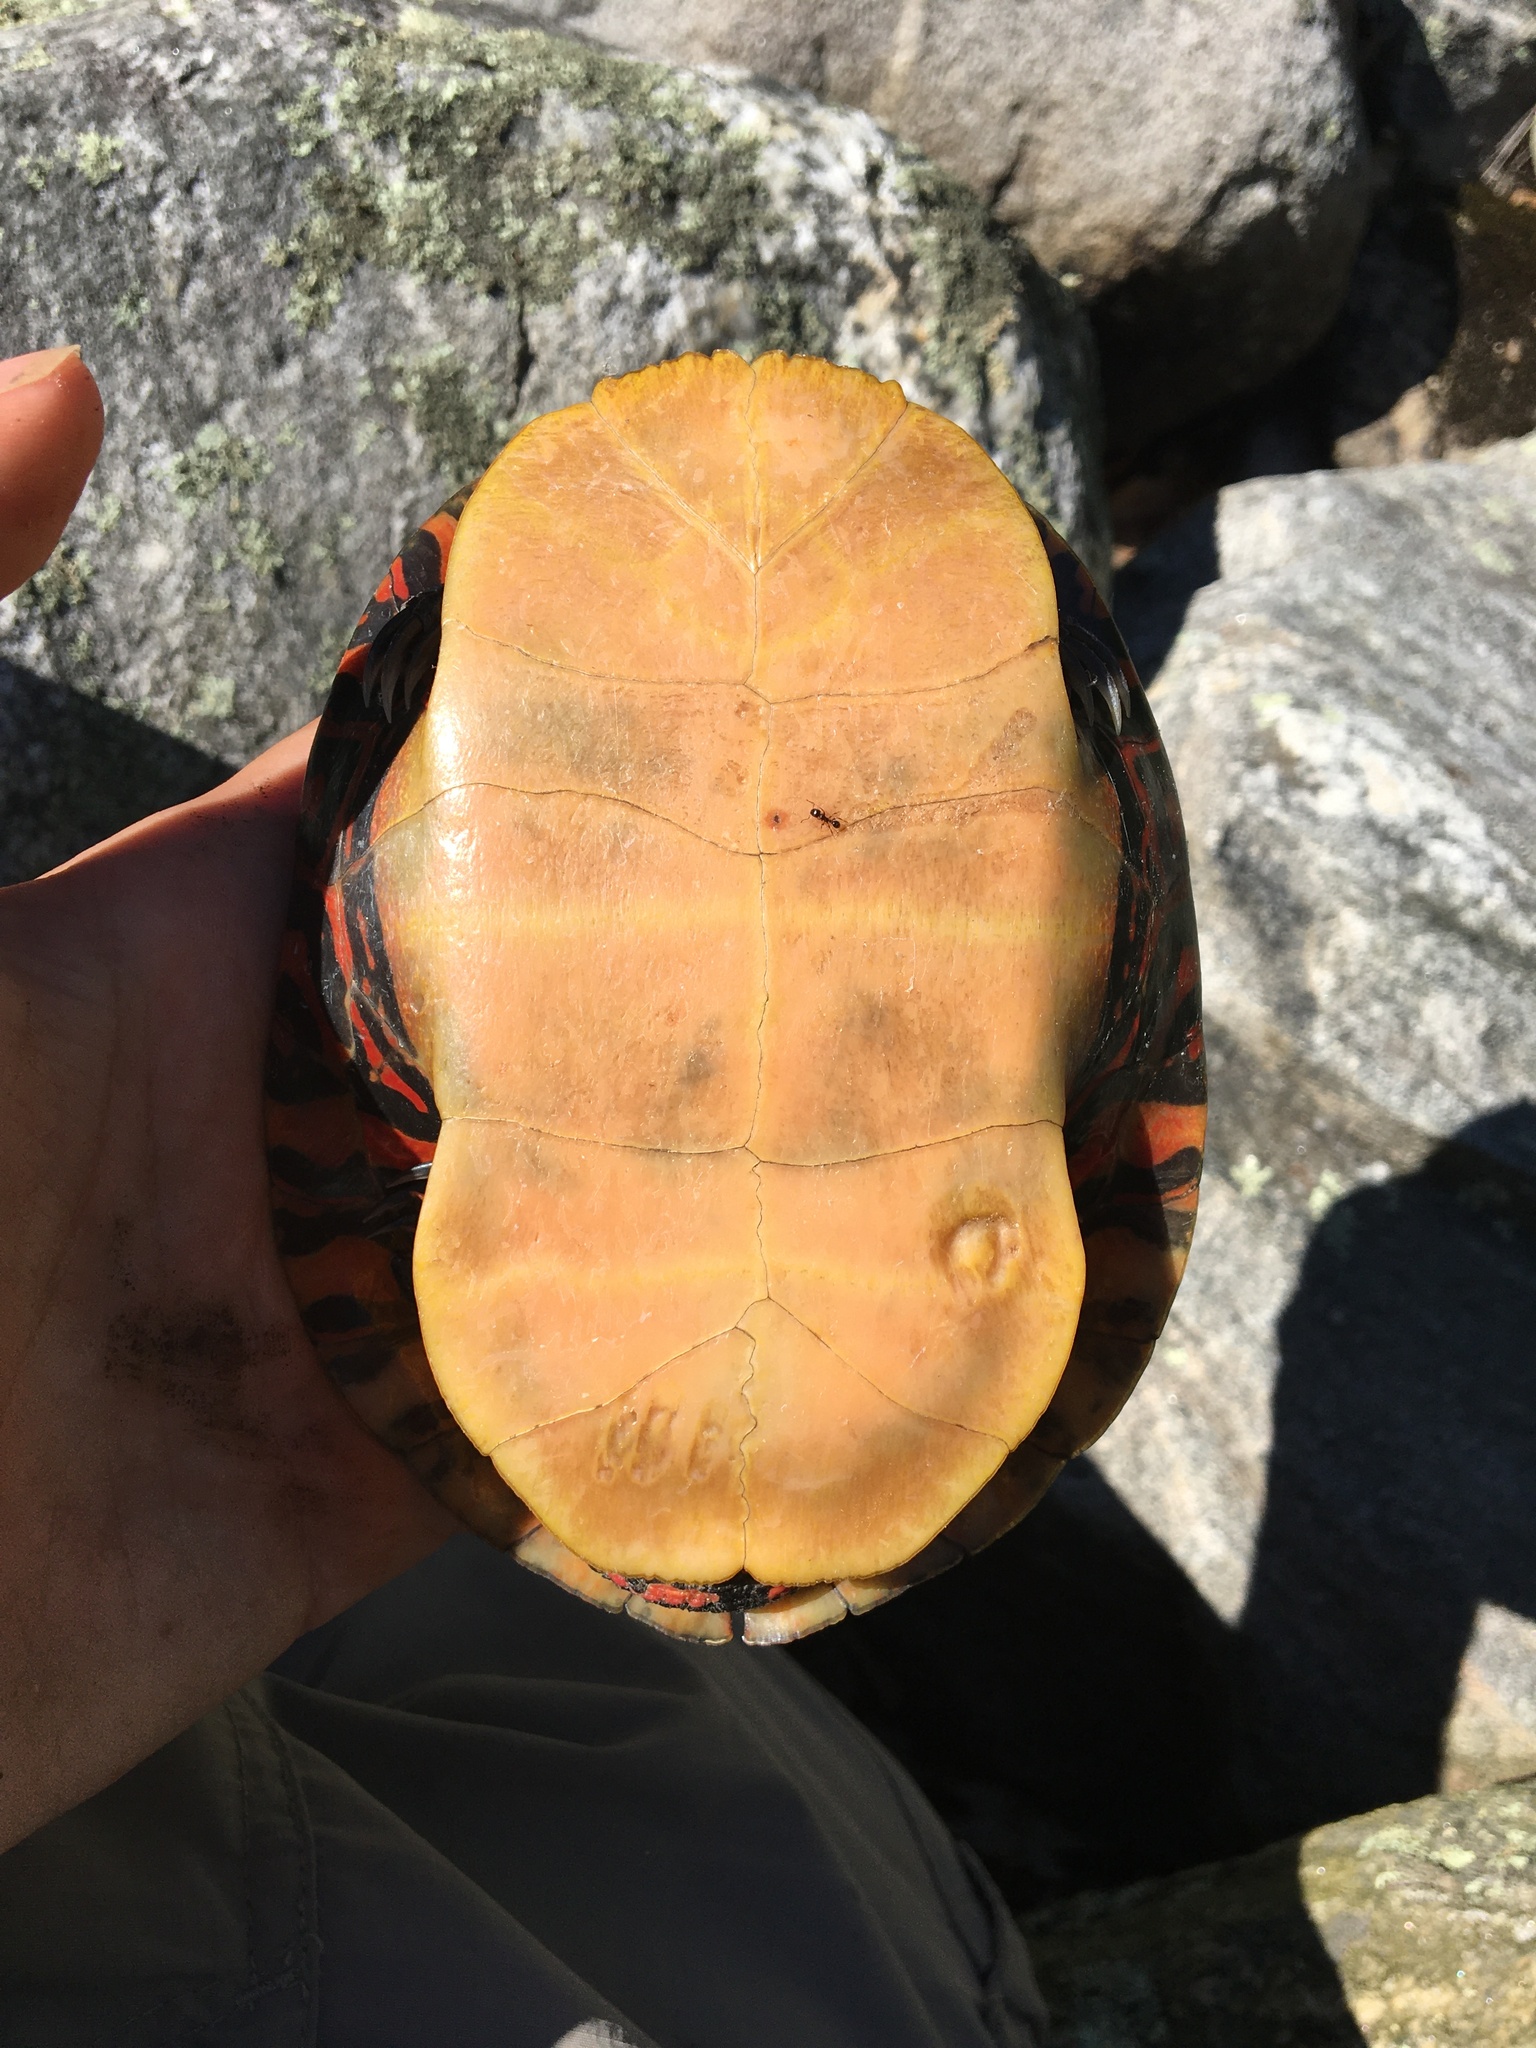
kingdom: Animalia
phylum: Chordata
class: Testudines
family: Emydidae
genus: Chrysemys
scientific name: Chrysemys picta
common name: Painted turtle
